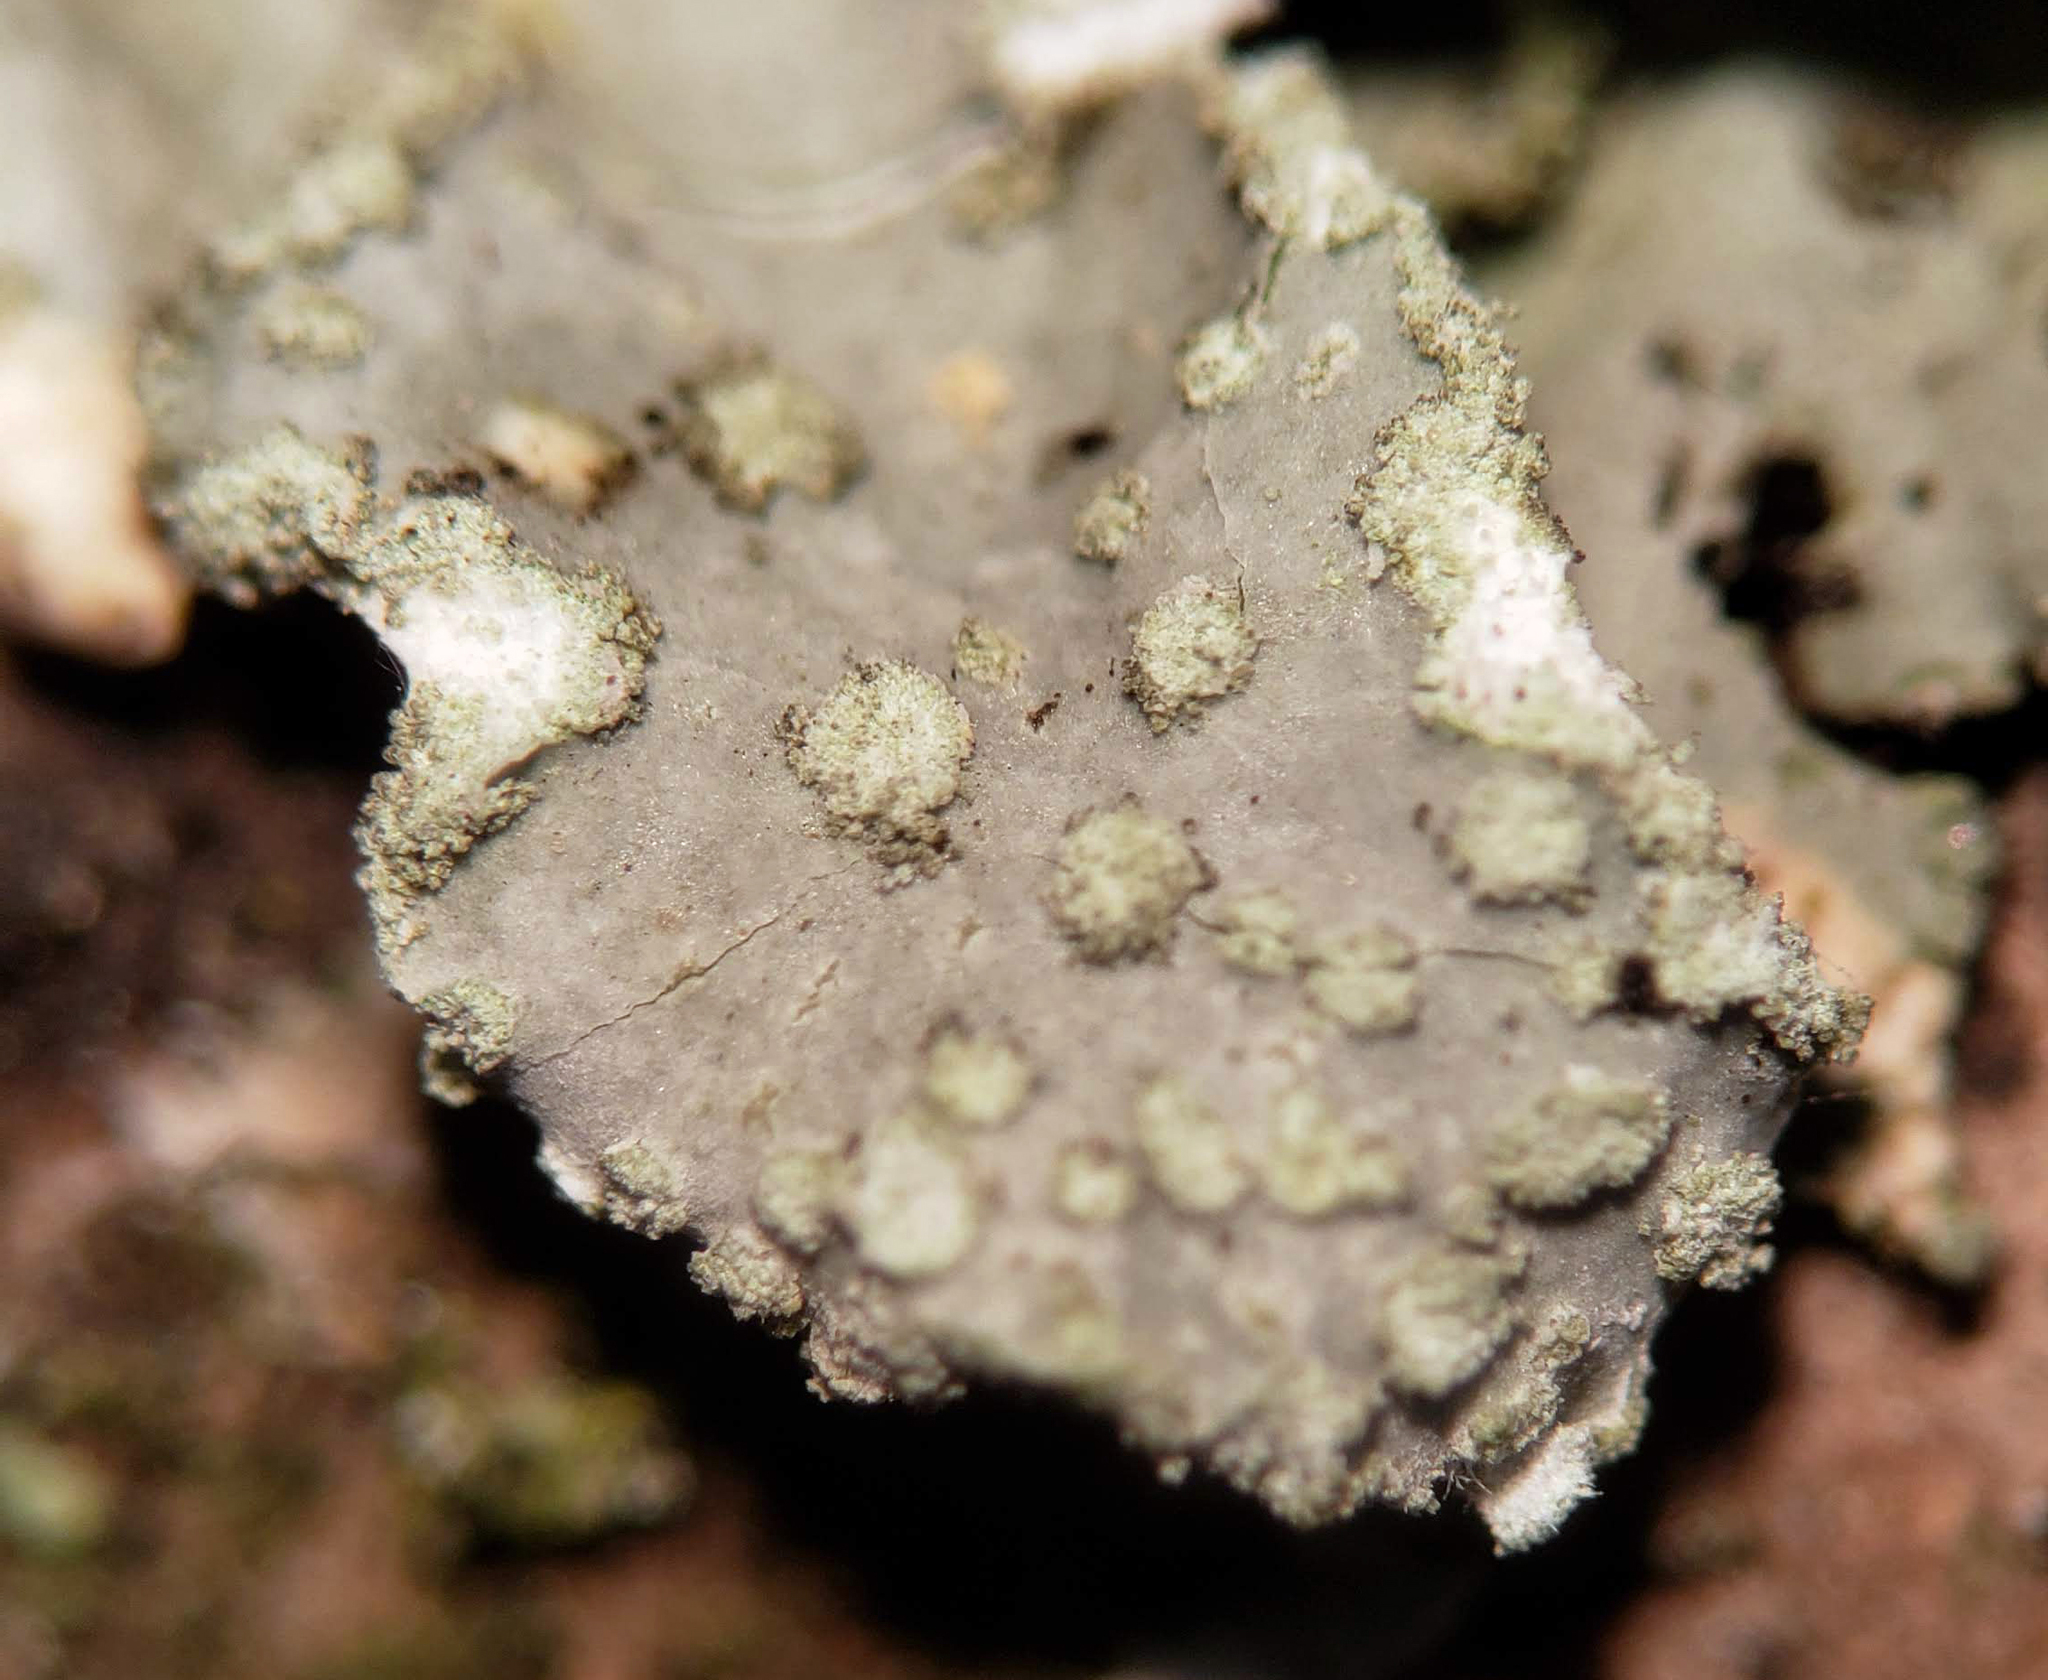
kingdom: Fungi
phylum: Ascomycota
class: Lecanoromycetes
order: Lecanorales
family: Parmeliaceae
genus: Parmelia
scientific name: Parmelia sulcata
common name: Netted shield lichen
